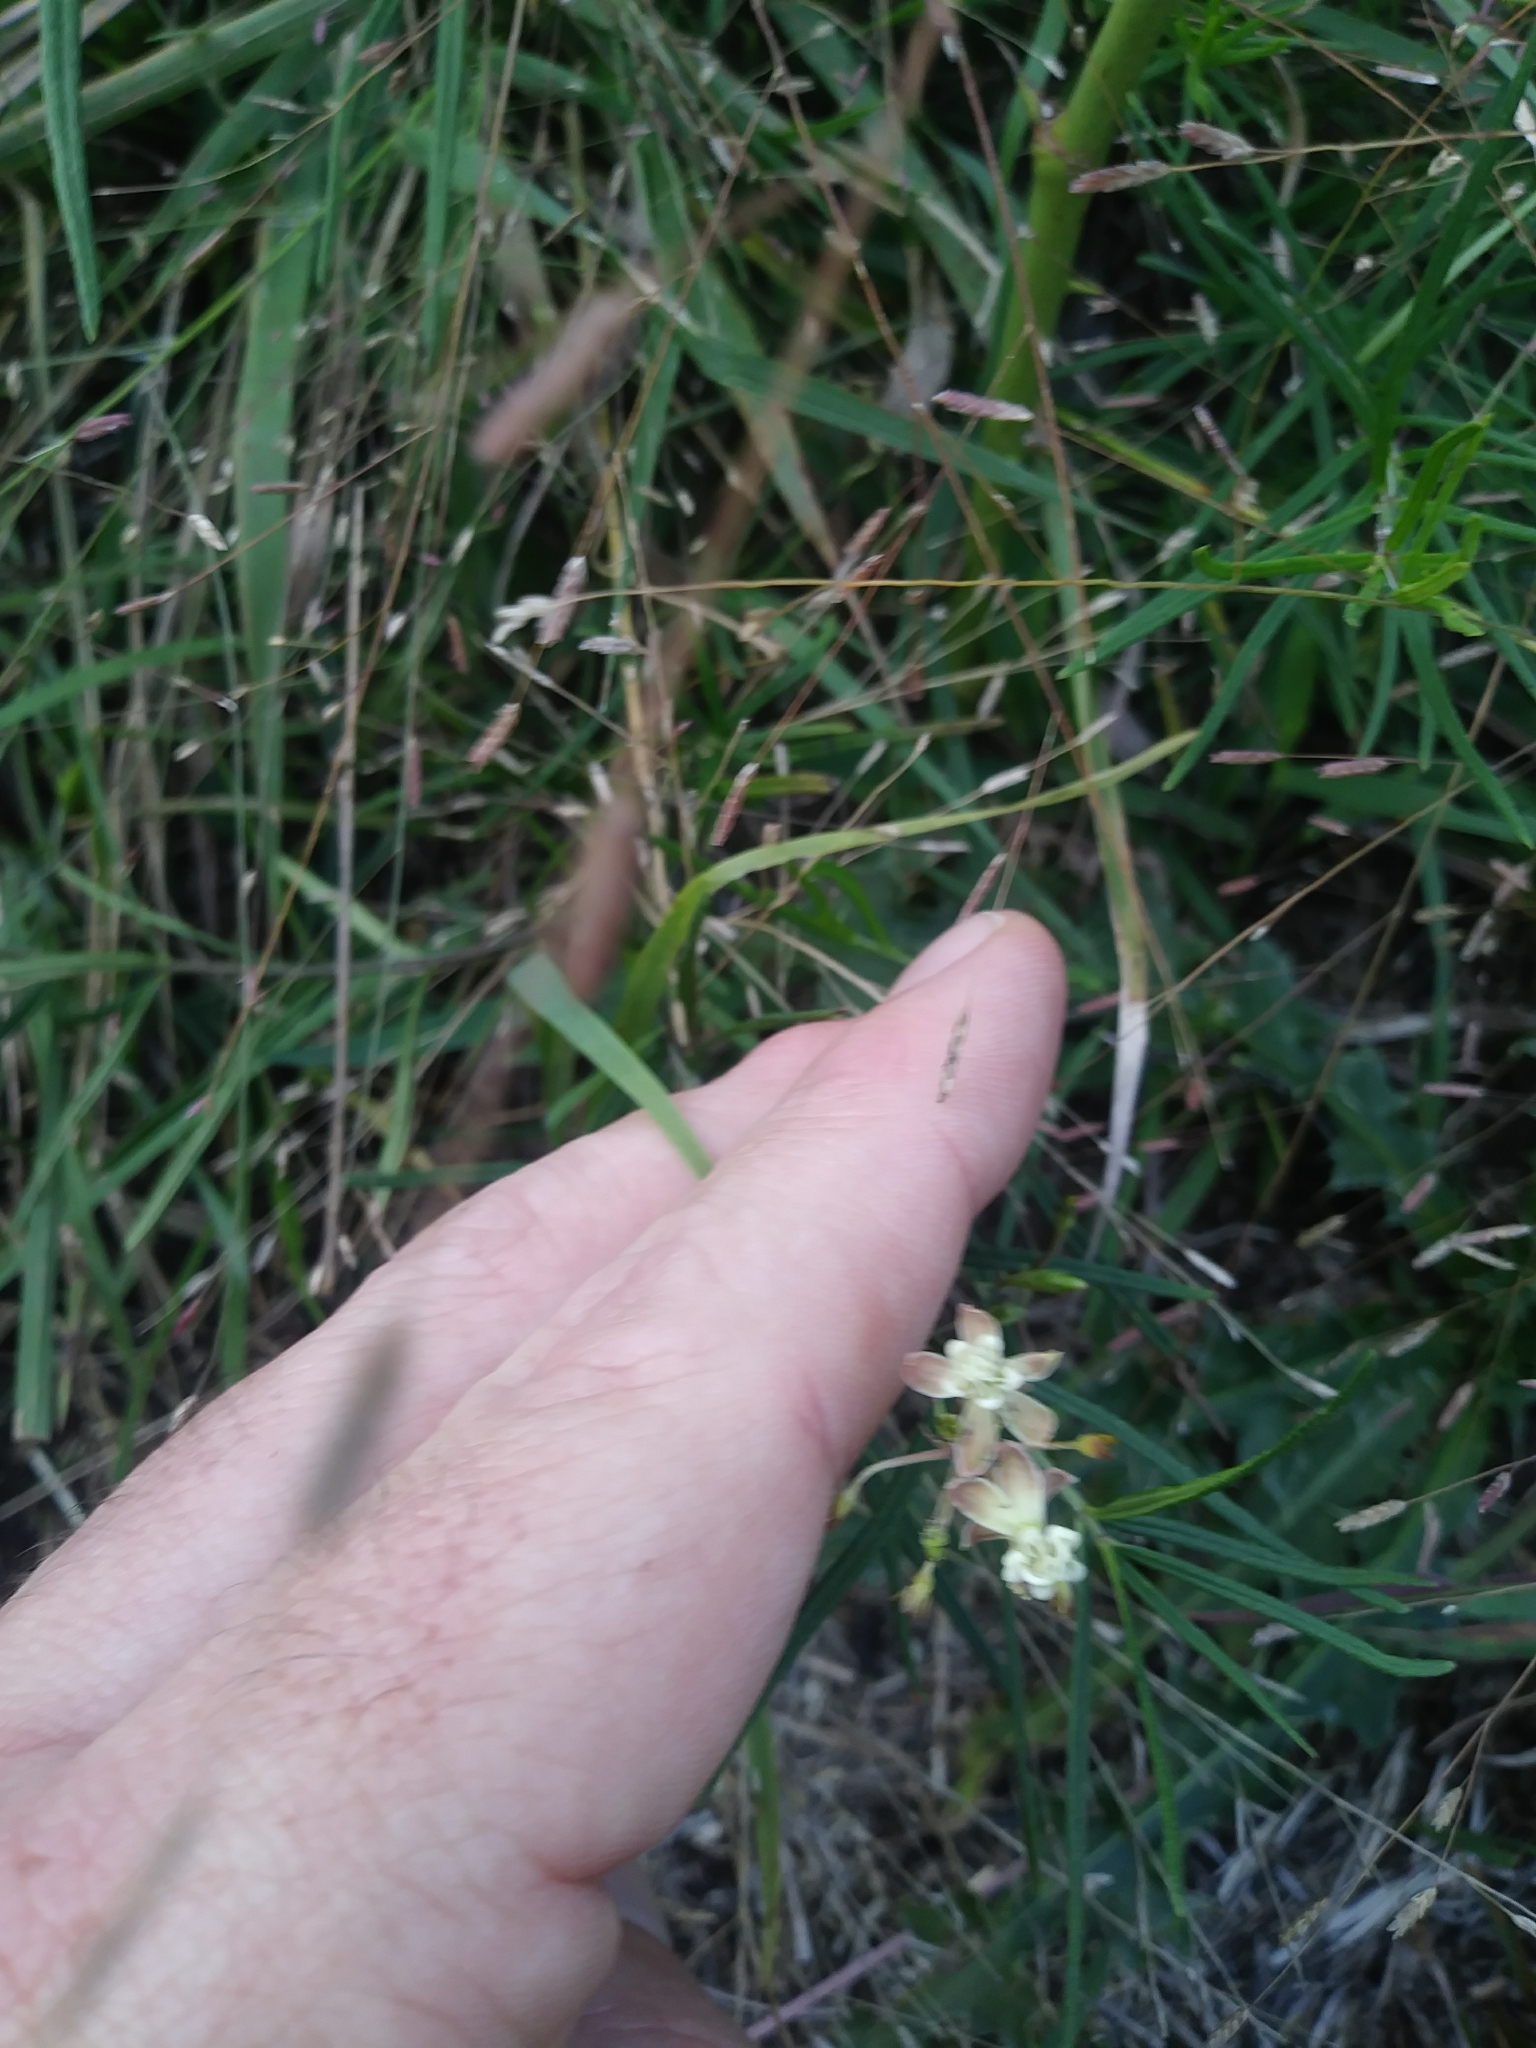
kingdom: Plantae
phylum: Tracheophyta
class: Magnoliopsida
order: Gentianales
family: Apocynaceae
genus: Asclepias
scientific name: Asclepias verticillata
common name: Eastern whorled milkweed
